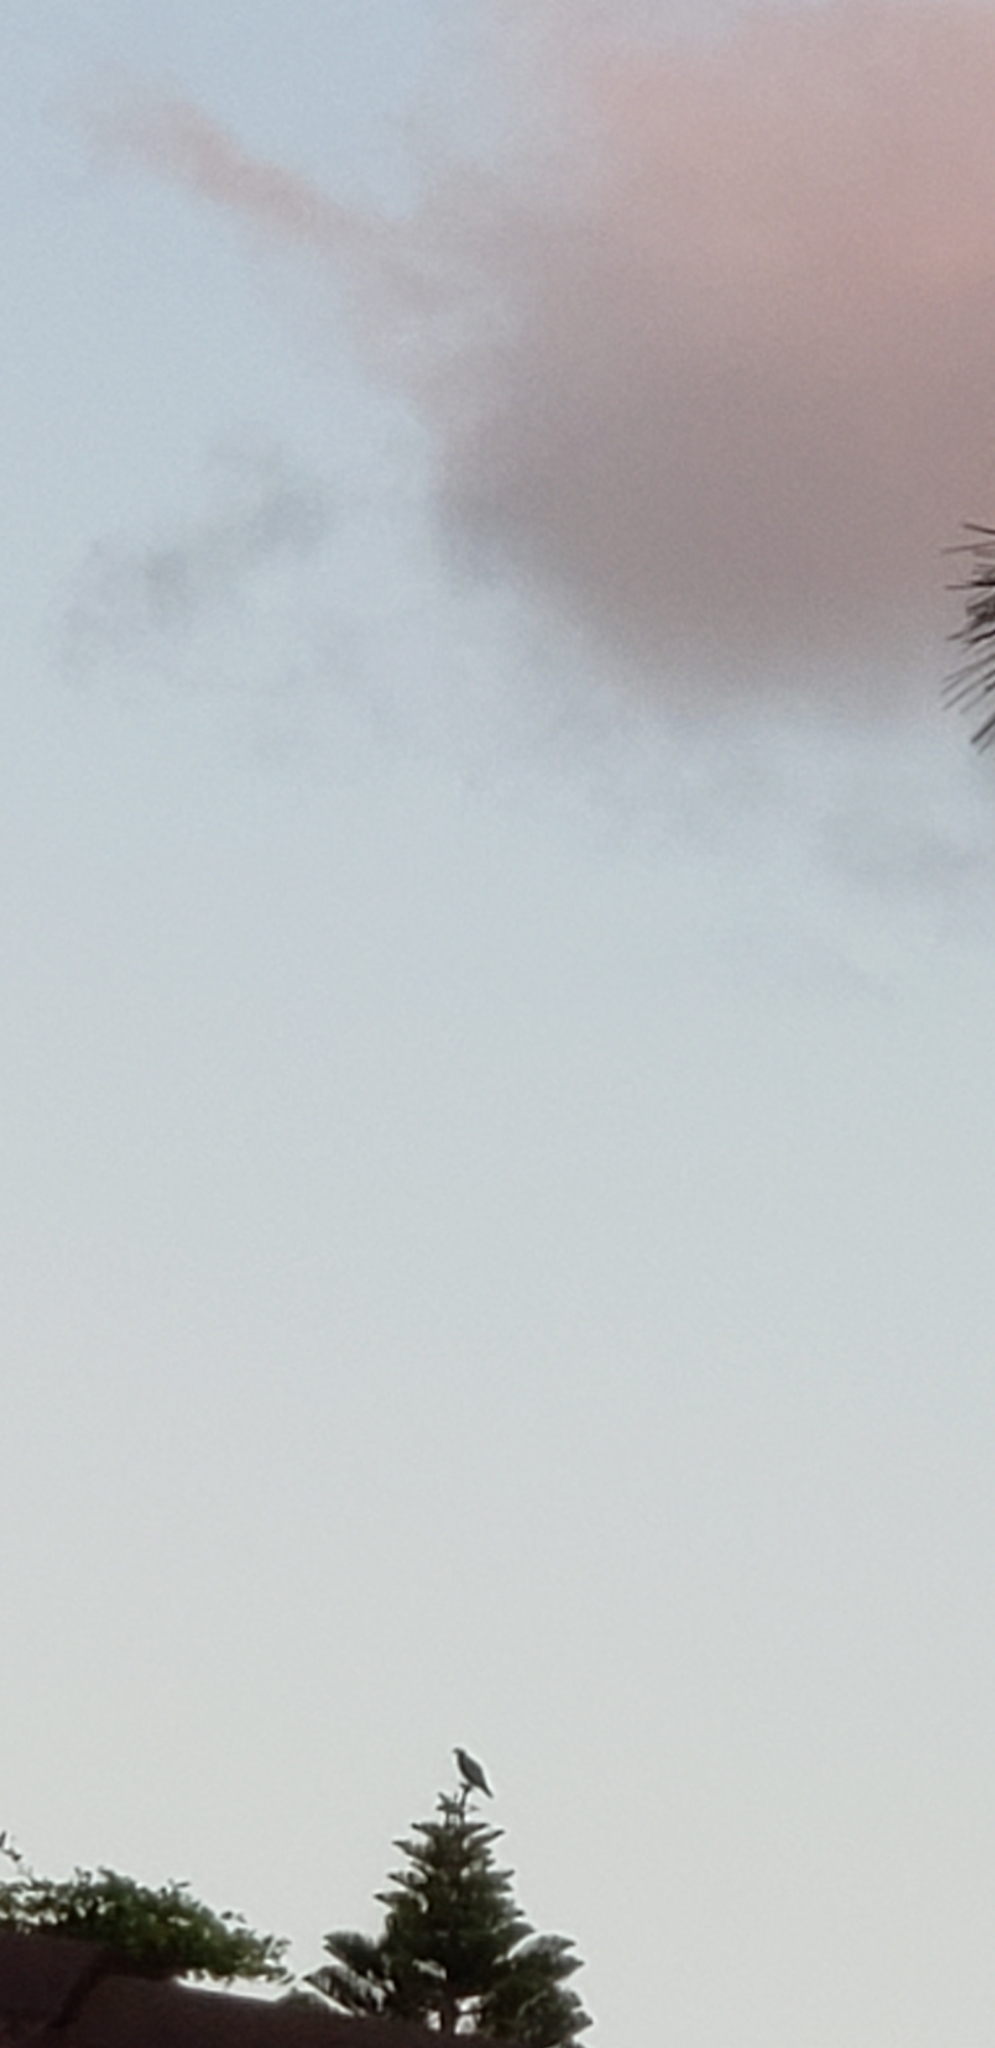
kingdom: Animalia
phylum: Chordata
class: Aves
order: Piciformes
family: Picidae
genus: Melanerpes
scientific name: Melanerpes carolinus
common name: Red-bellied woodpecker
